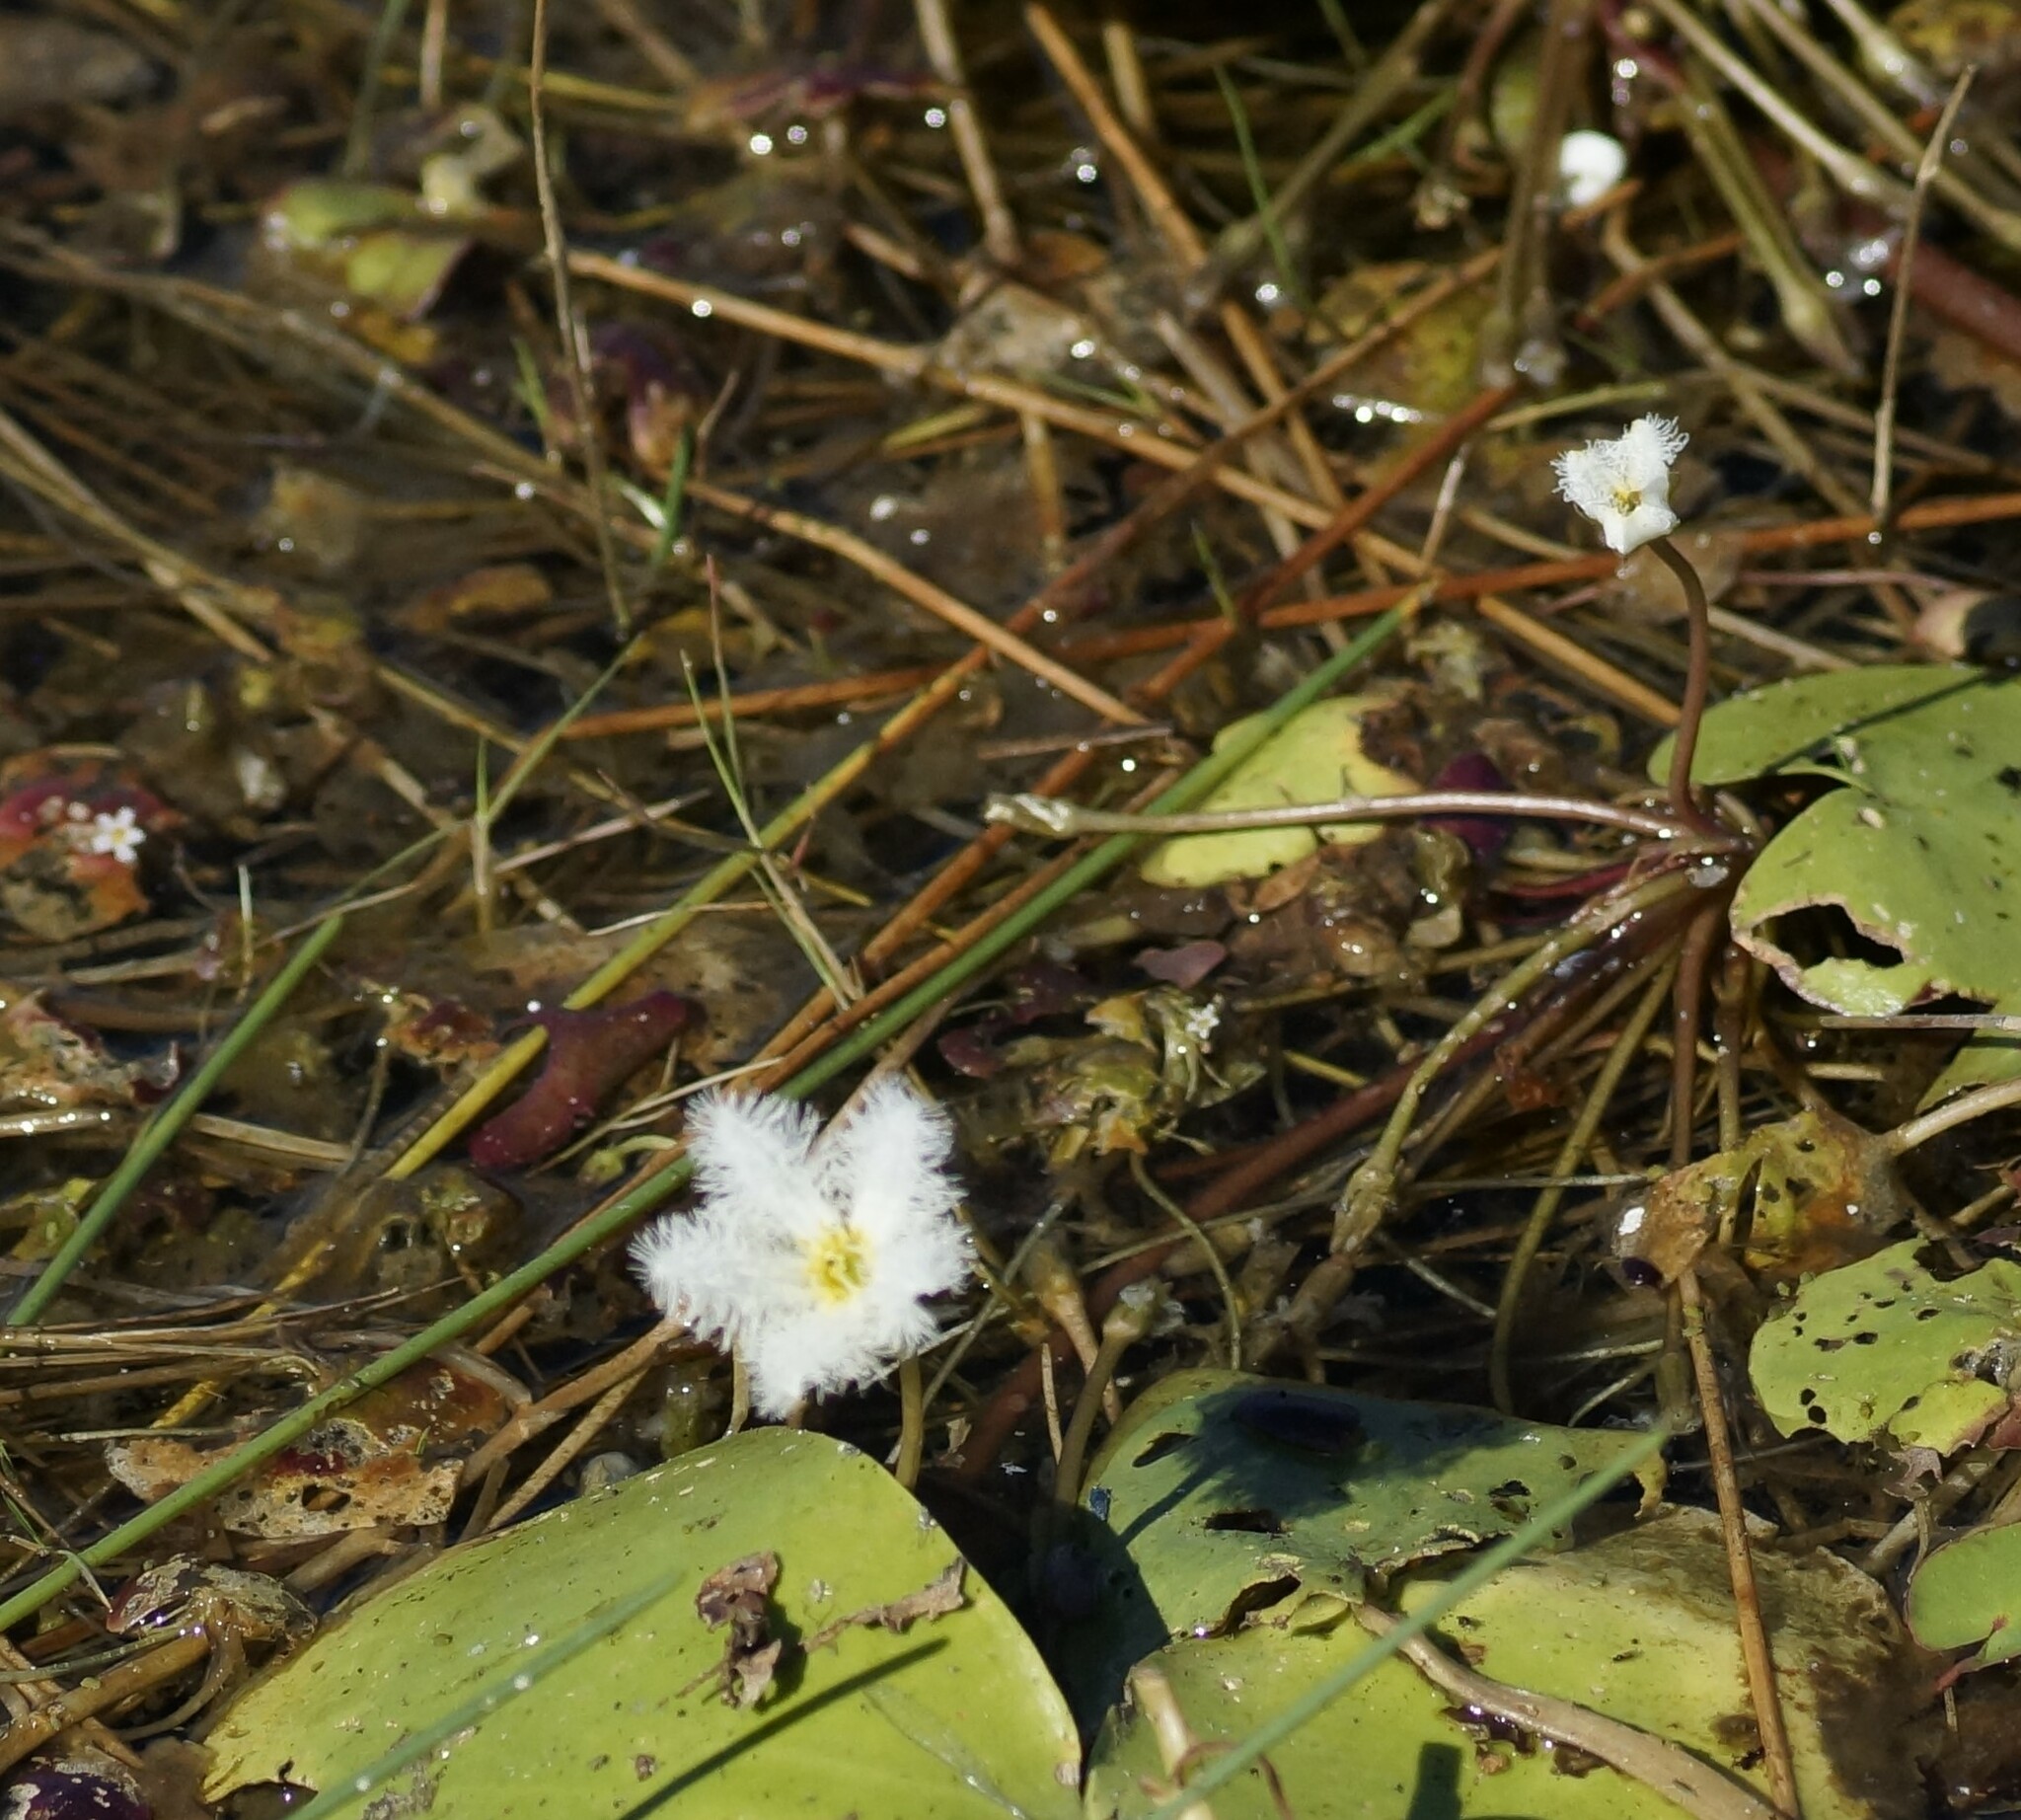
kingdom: Plantae
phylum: Tracheophyta
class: Magnoliopsida
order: Asterales
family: Menyanthaceae
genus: Nymphoides
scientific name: Nymphoides indica
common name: Water-snowflake
